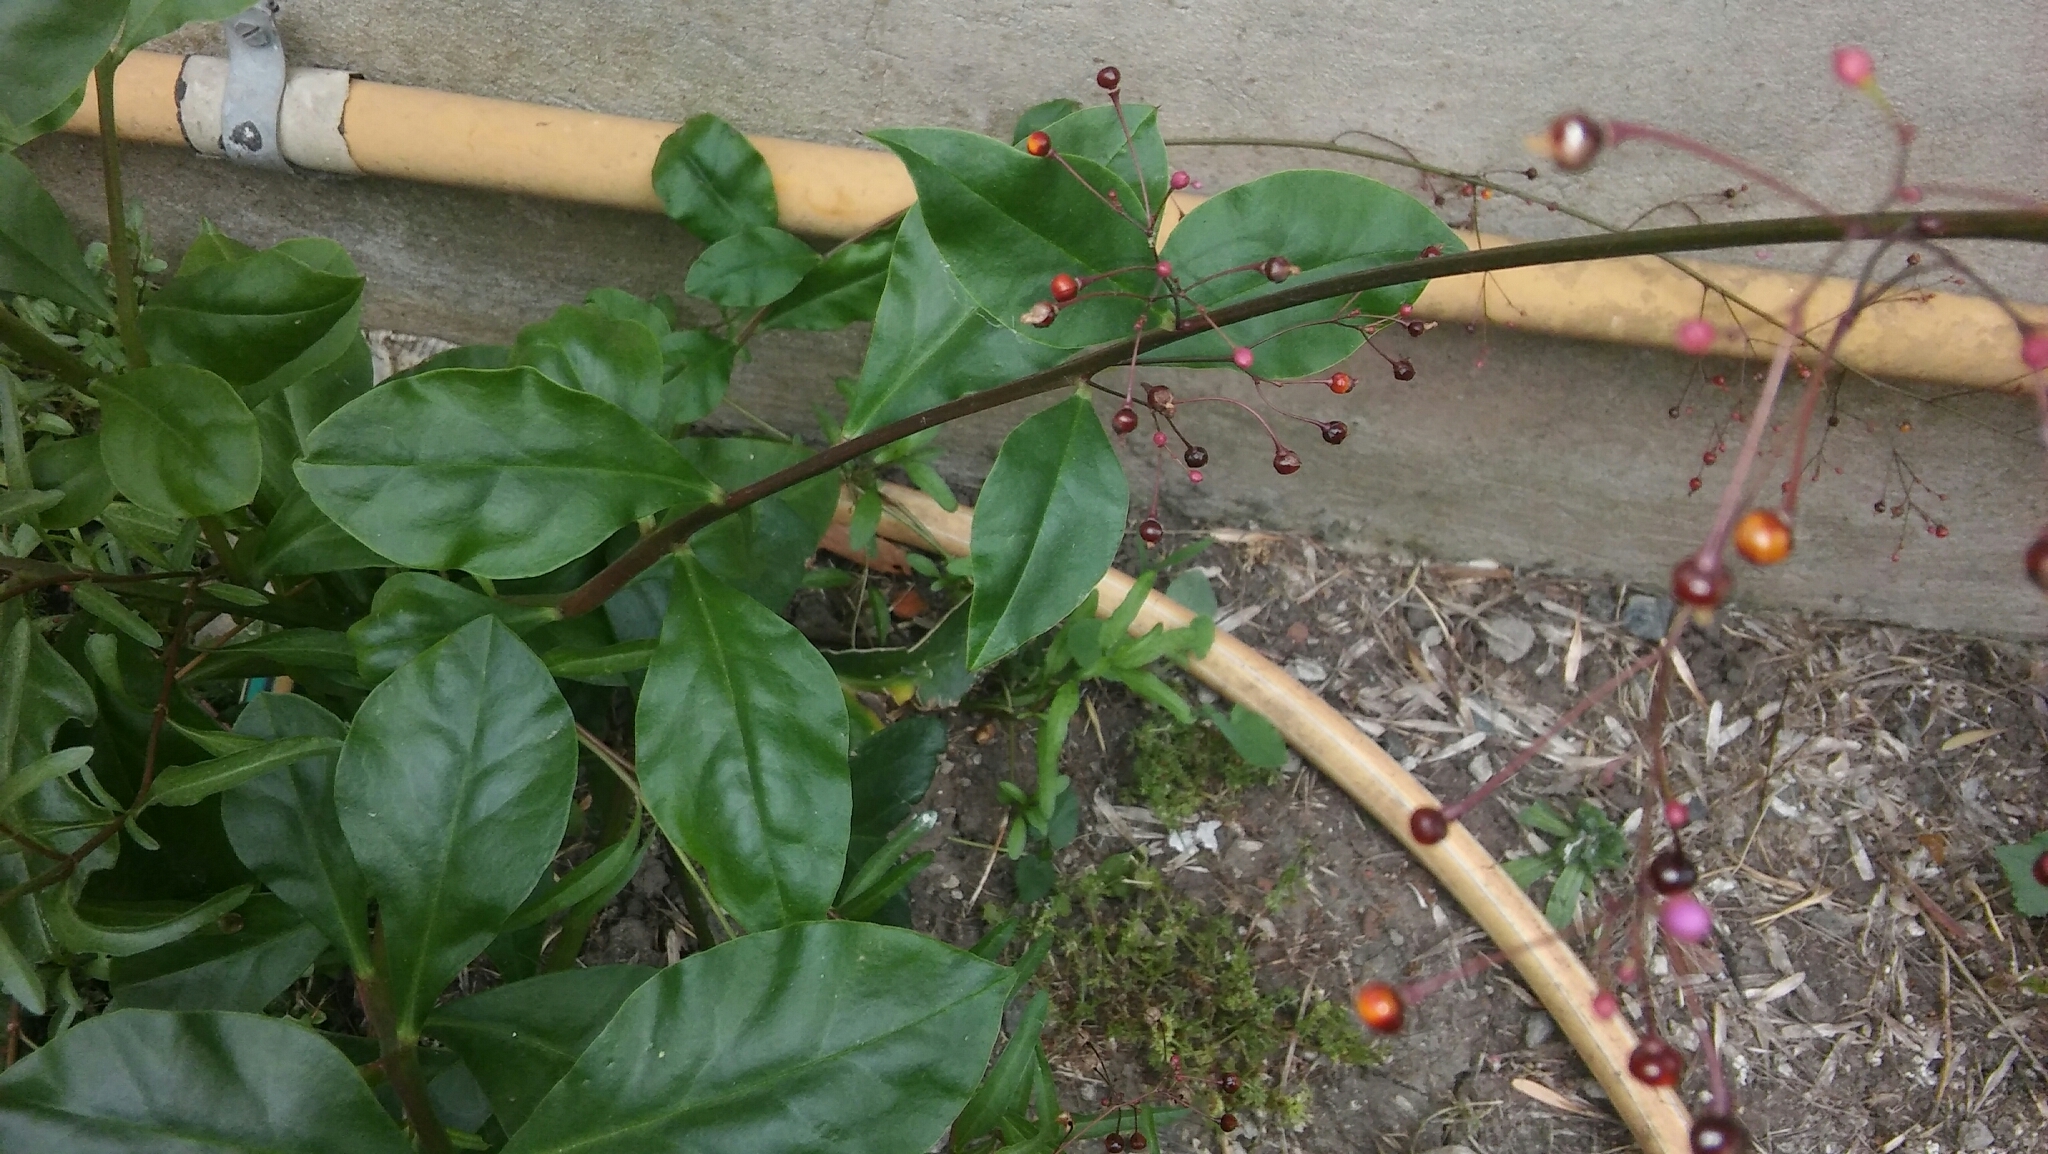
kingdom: Plantae
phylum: Tracheophyta
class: Magnoliopsida
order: Caryophyllales
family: Talinaceae
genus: Talinum
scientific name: Talinum paniculatum
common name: Jewels of opar
